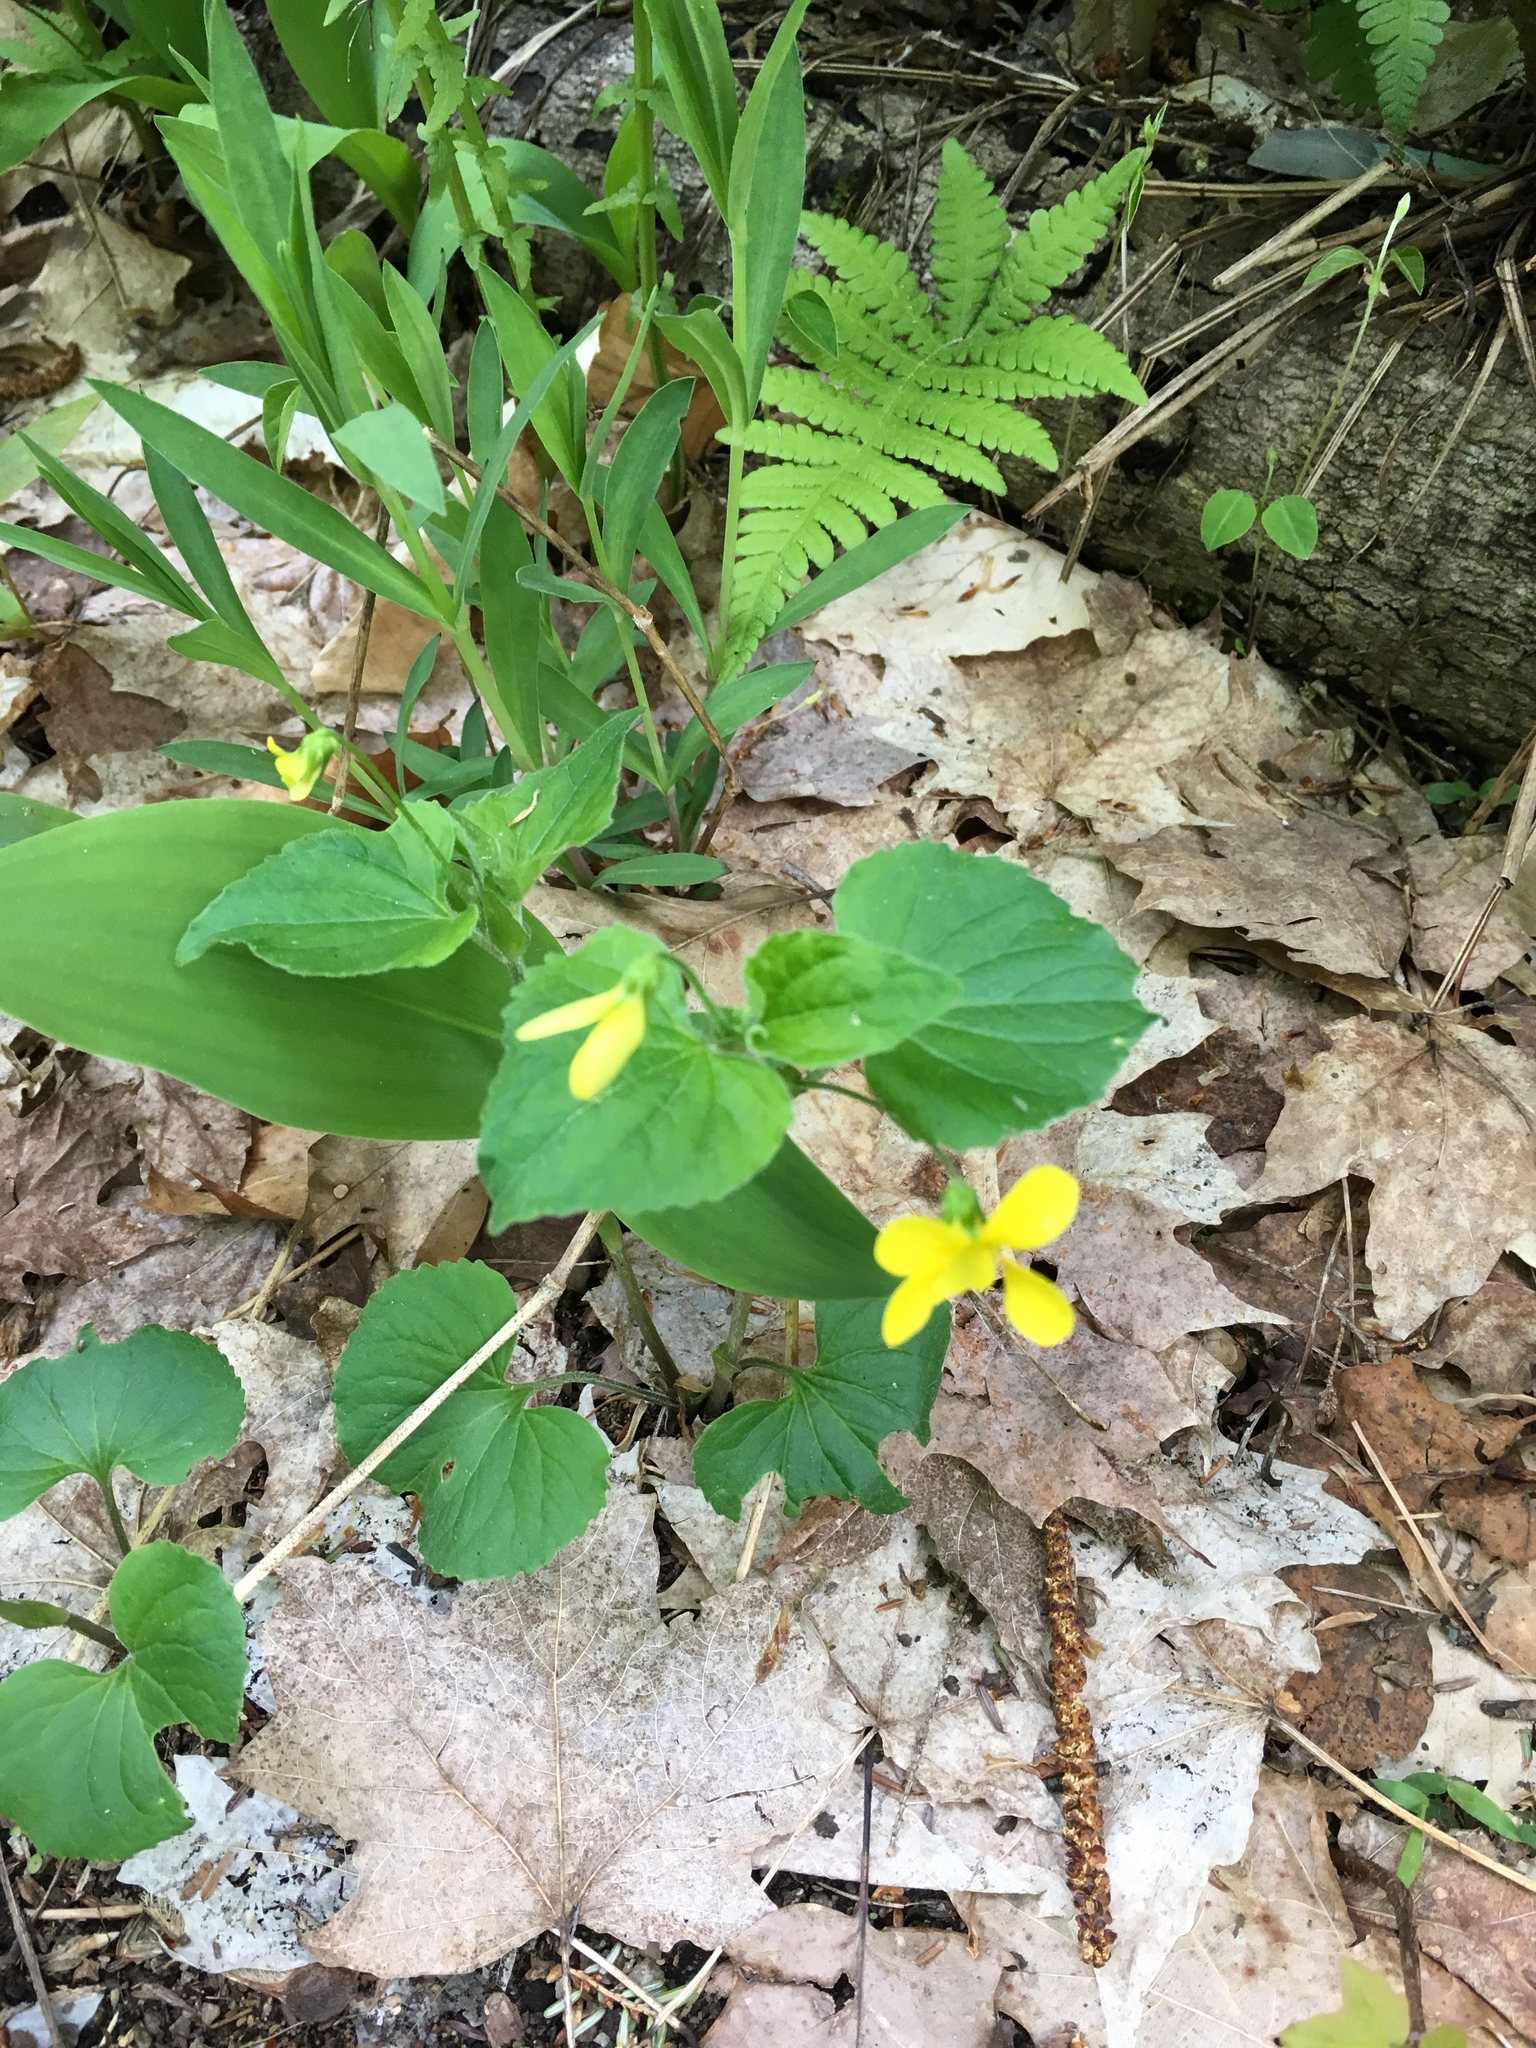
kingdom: Plantae
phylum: Tracheophyta
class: Magnoliopsida
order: Malpighiales
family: Violaceae
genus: Viola
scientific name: Viola eriocarpa
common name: Smooth yellow violet
